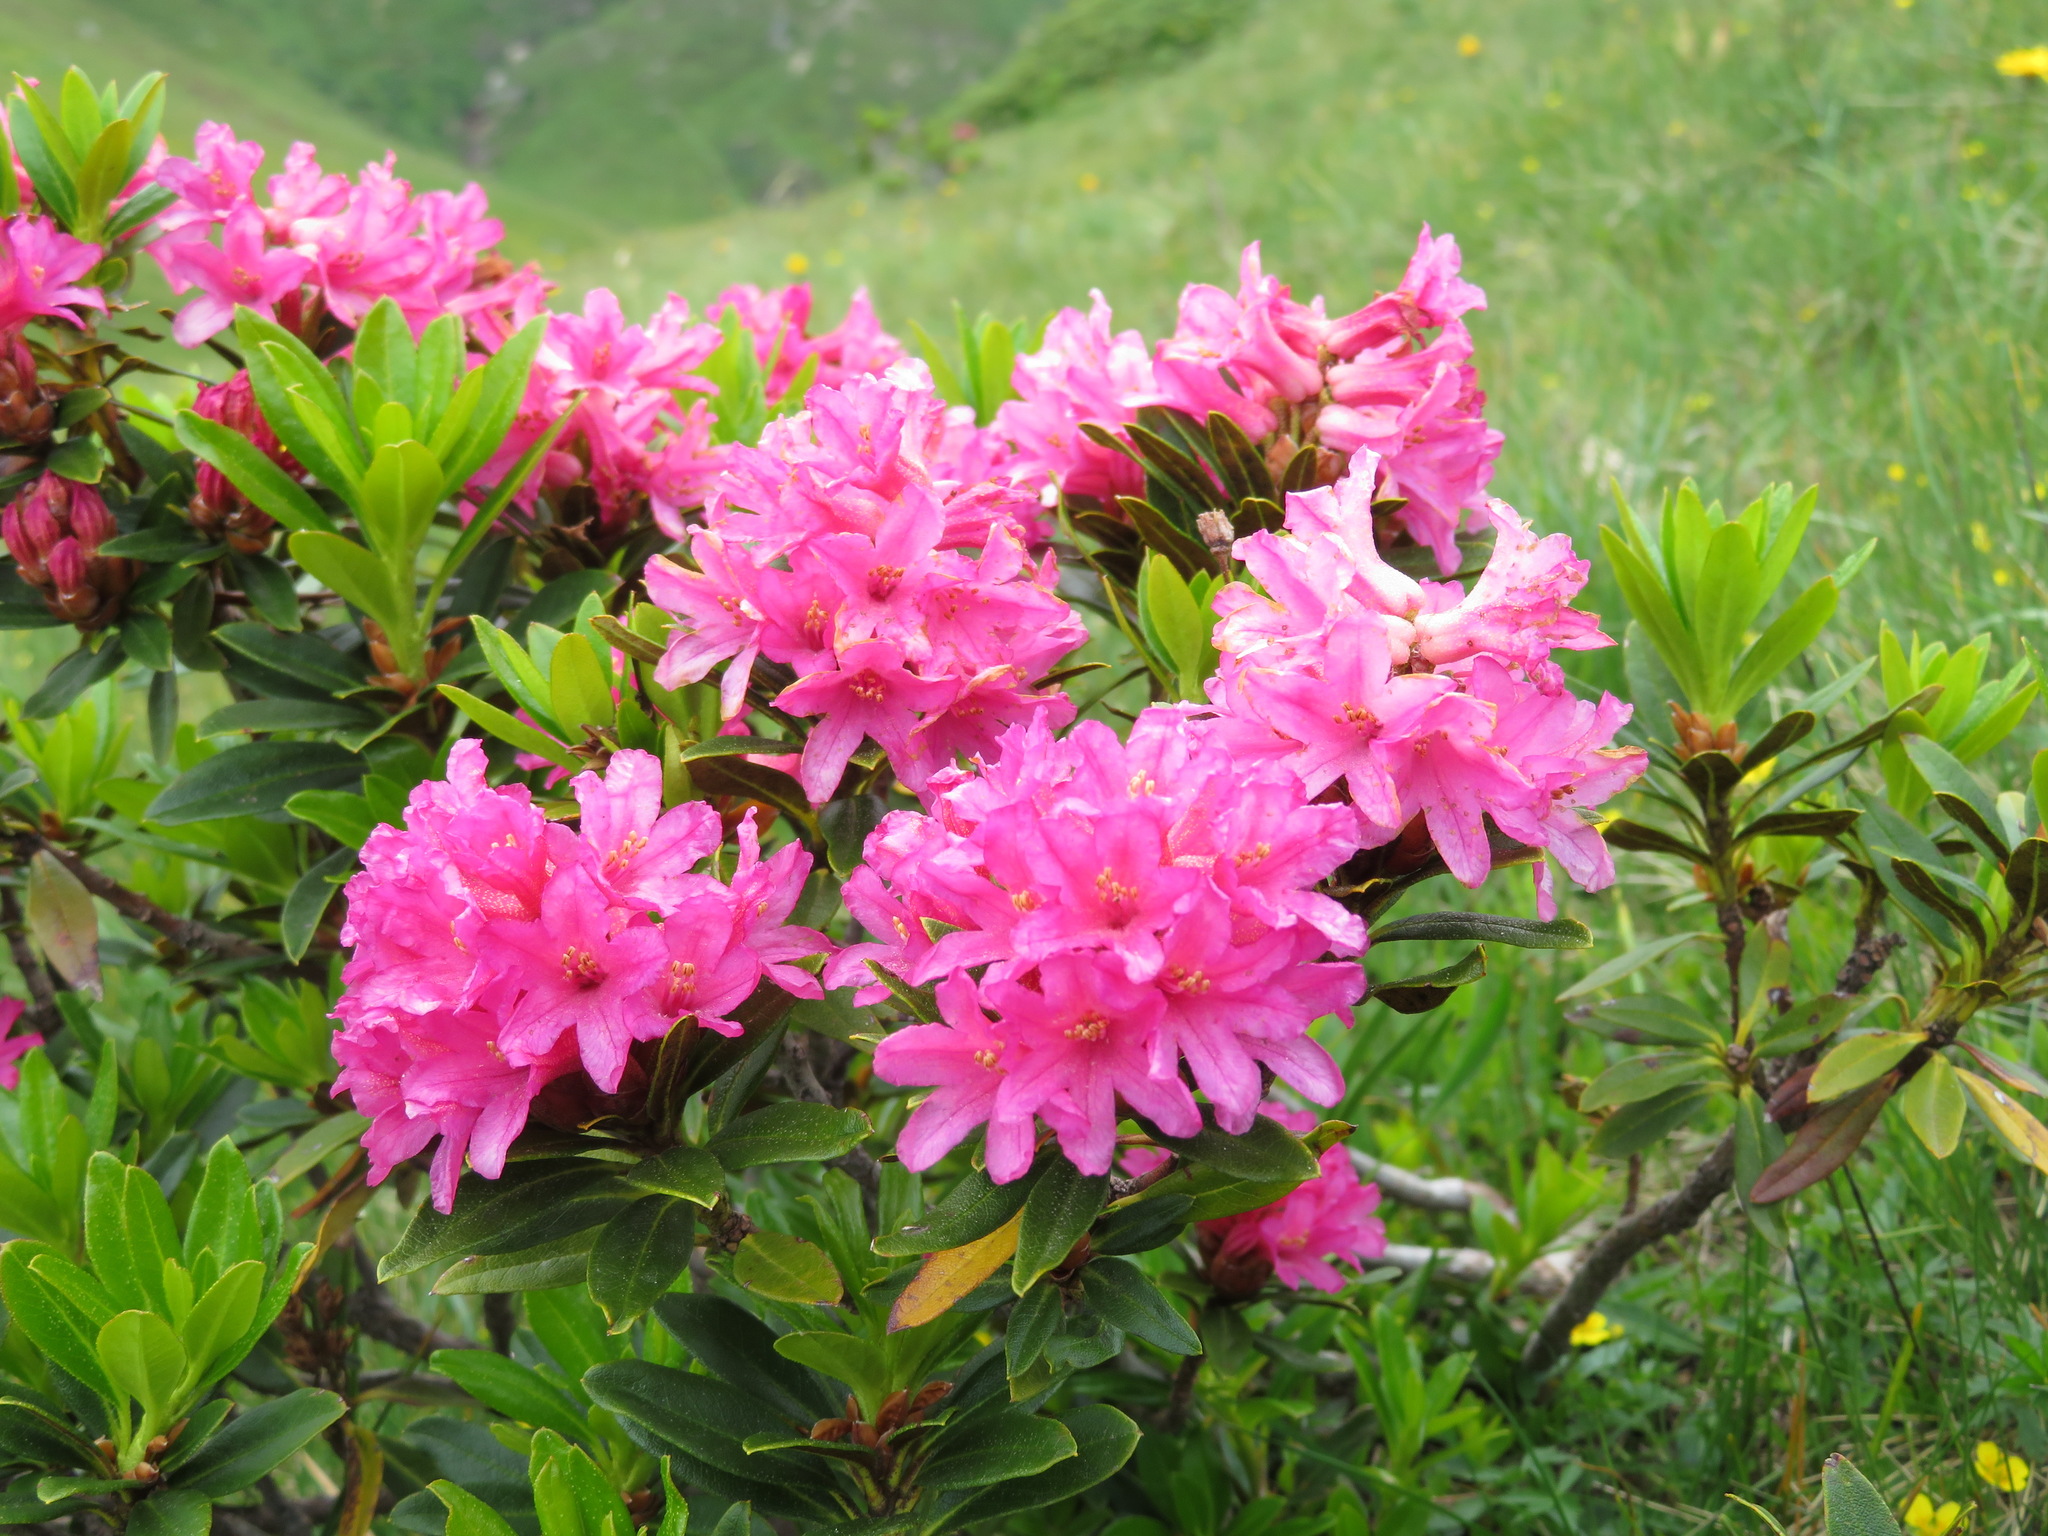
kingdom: Plantae
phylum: Tracheophyta
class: Magnoliopsida
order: Ericales
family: Ericaceae
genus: Rhododendron
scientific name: Rhododendron ferrugineum
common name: Alpenrose
